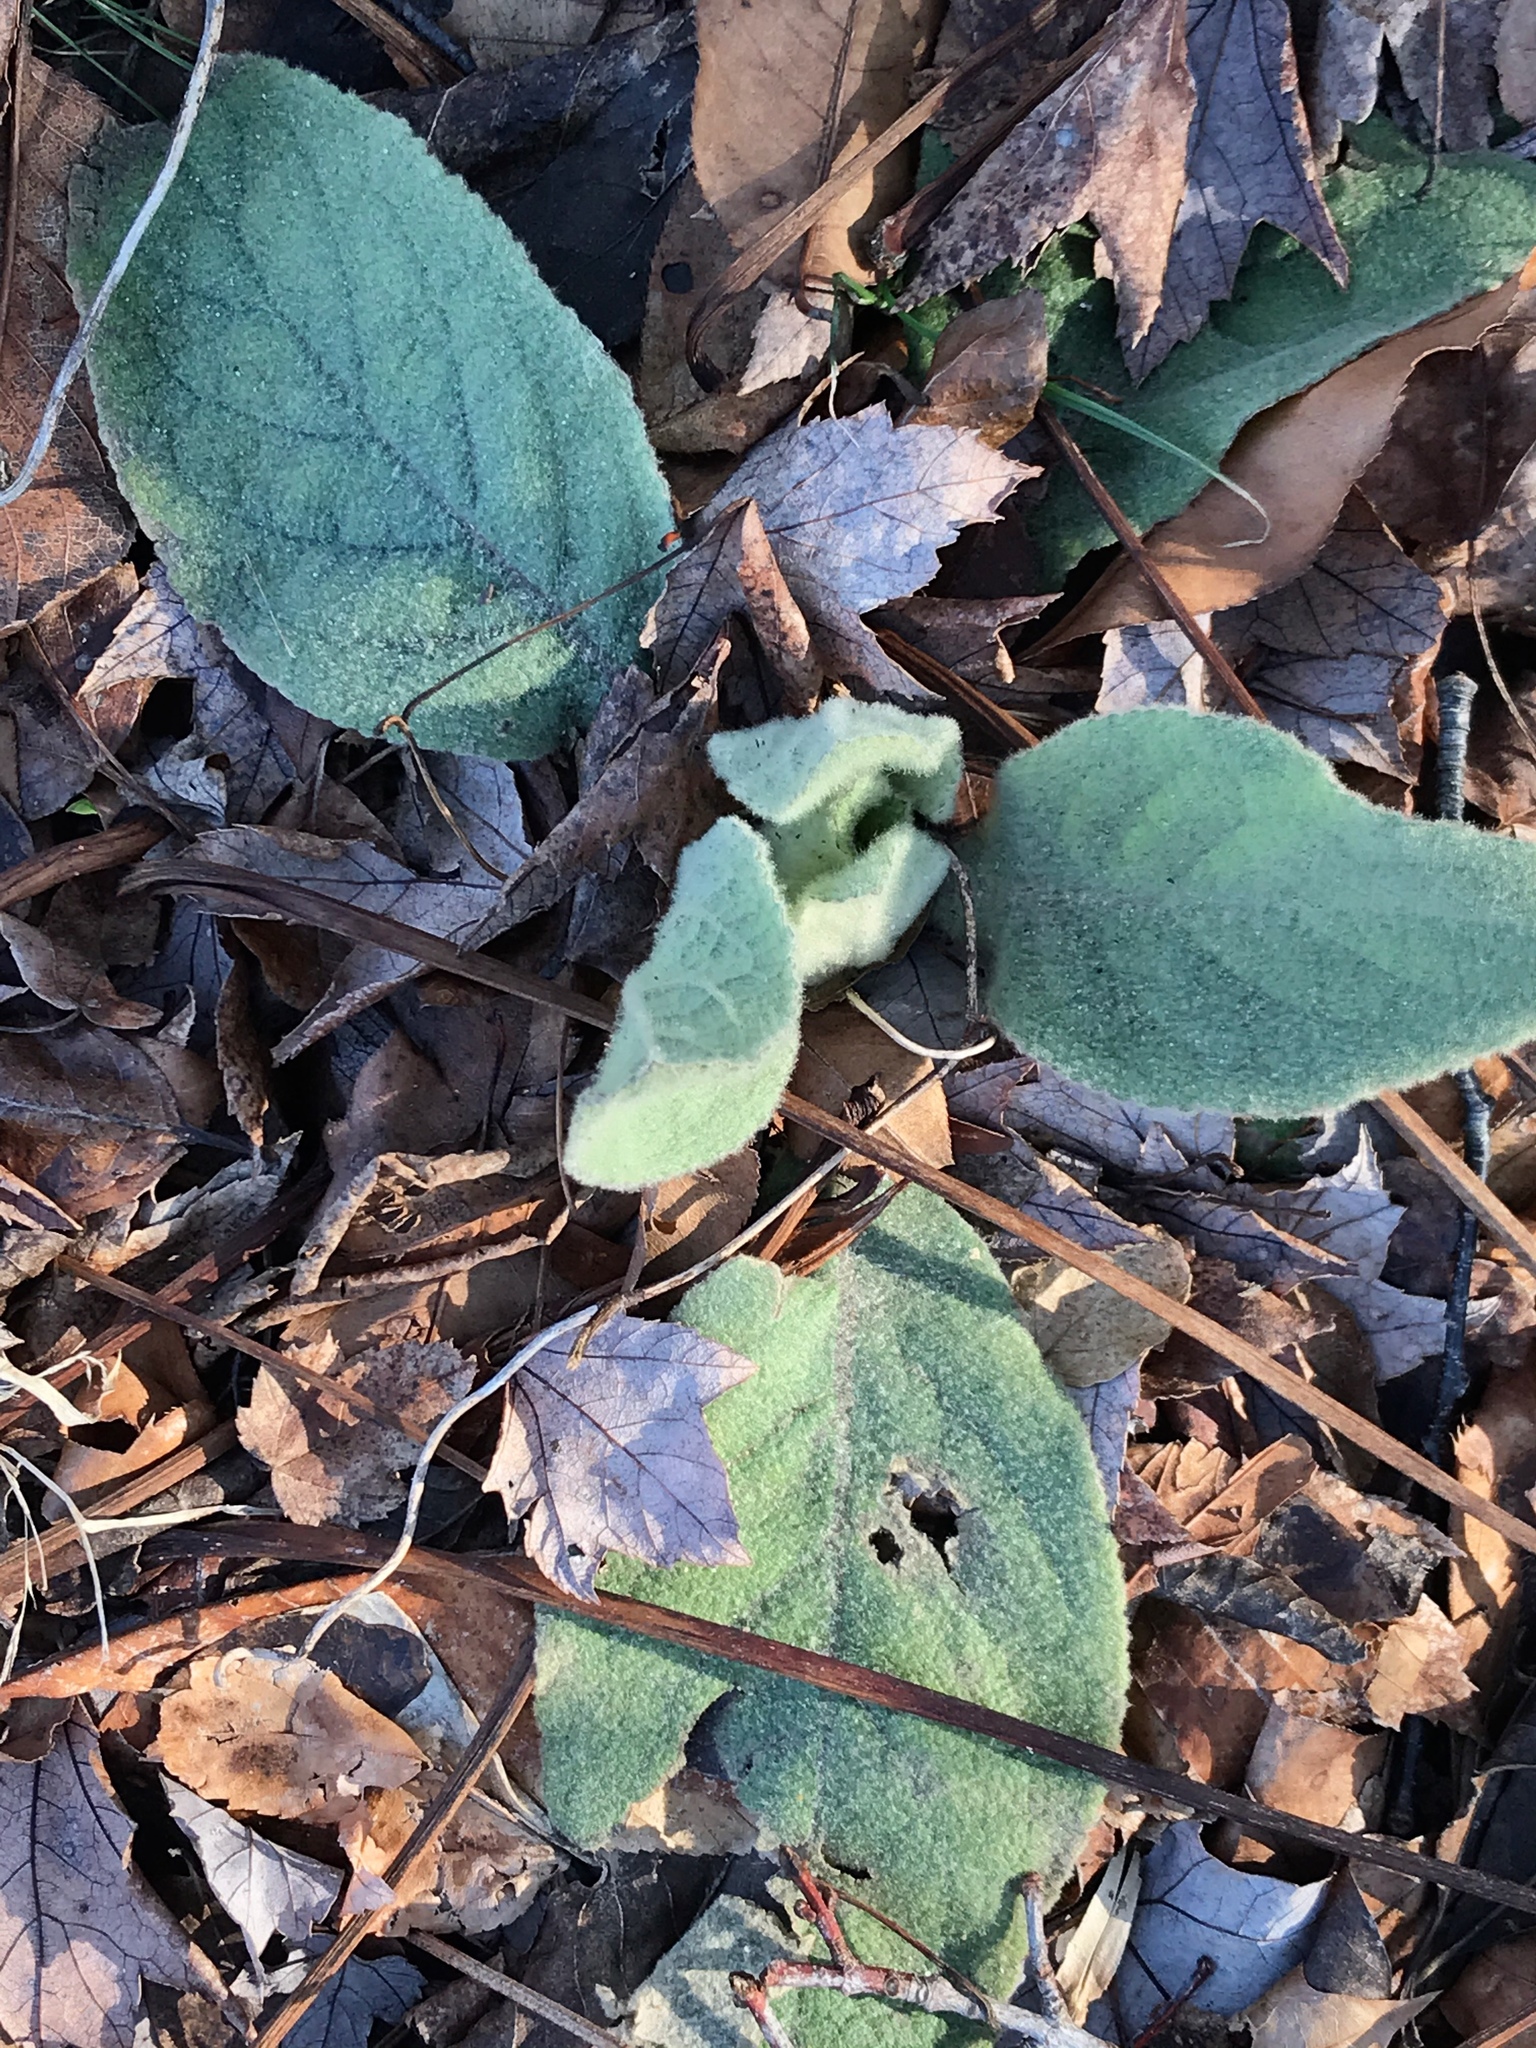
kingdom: Plantae
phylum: Tracheophyta
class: Magnoliopsida
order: Lamiales
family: Scrophulariaceae
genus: Verbascum
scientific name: Verbascum thapsus
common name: Common mullein
